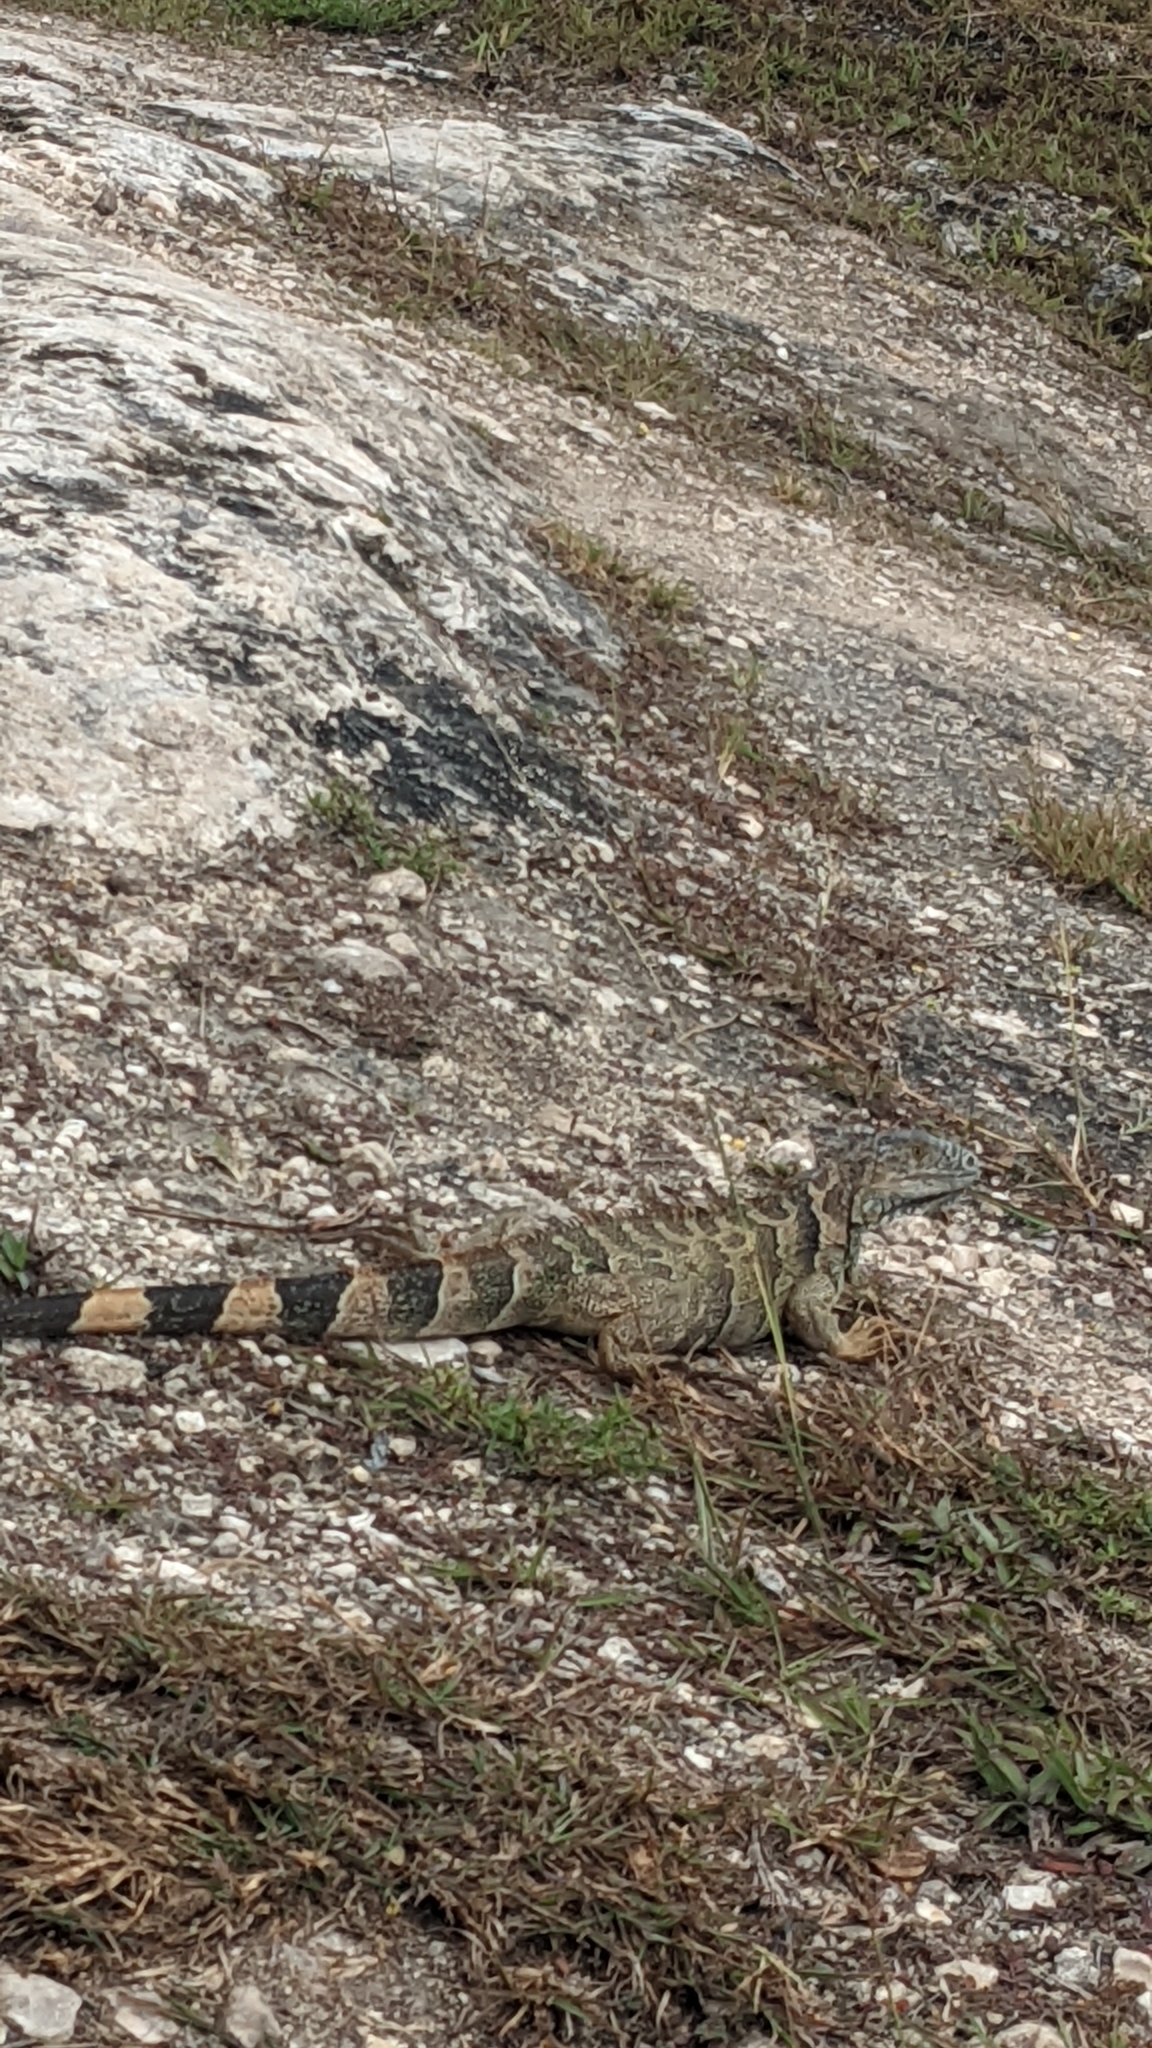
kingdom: Animalia
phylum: Chordata
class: Squamata
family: Iguanidae
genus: Iguana
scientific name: Iguana iguana
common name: Green iguana
